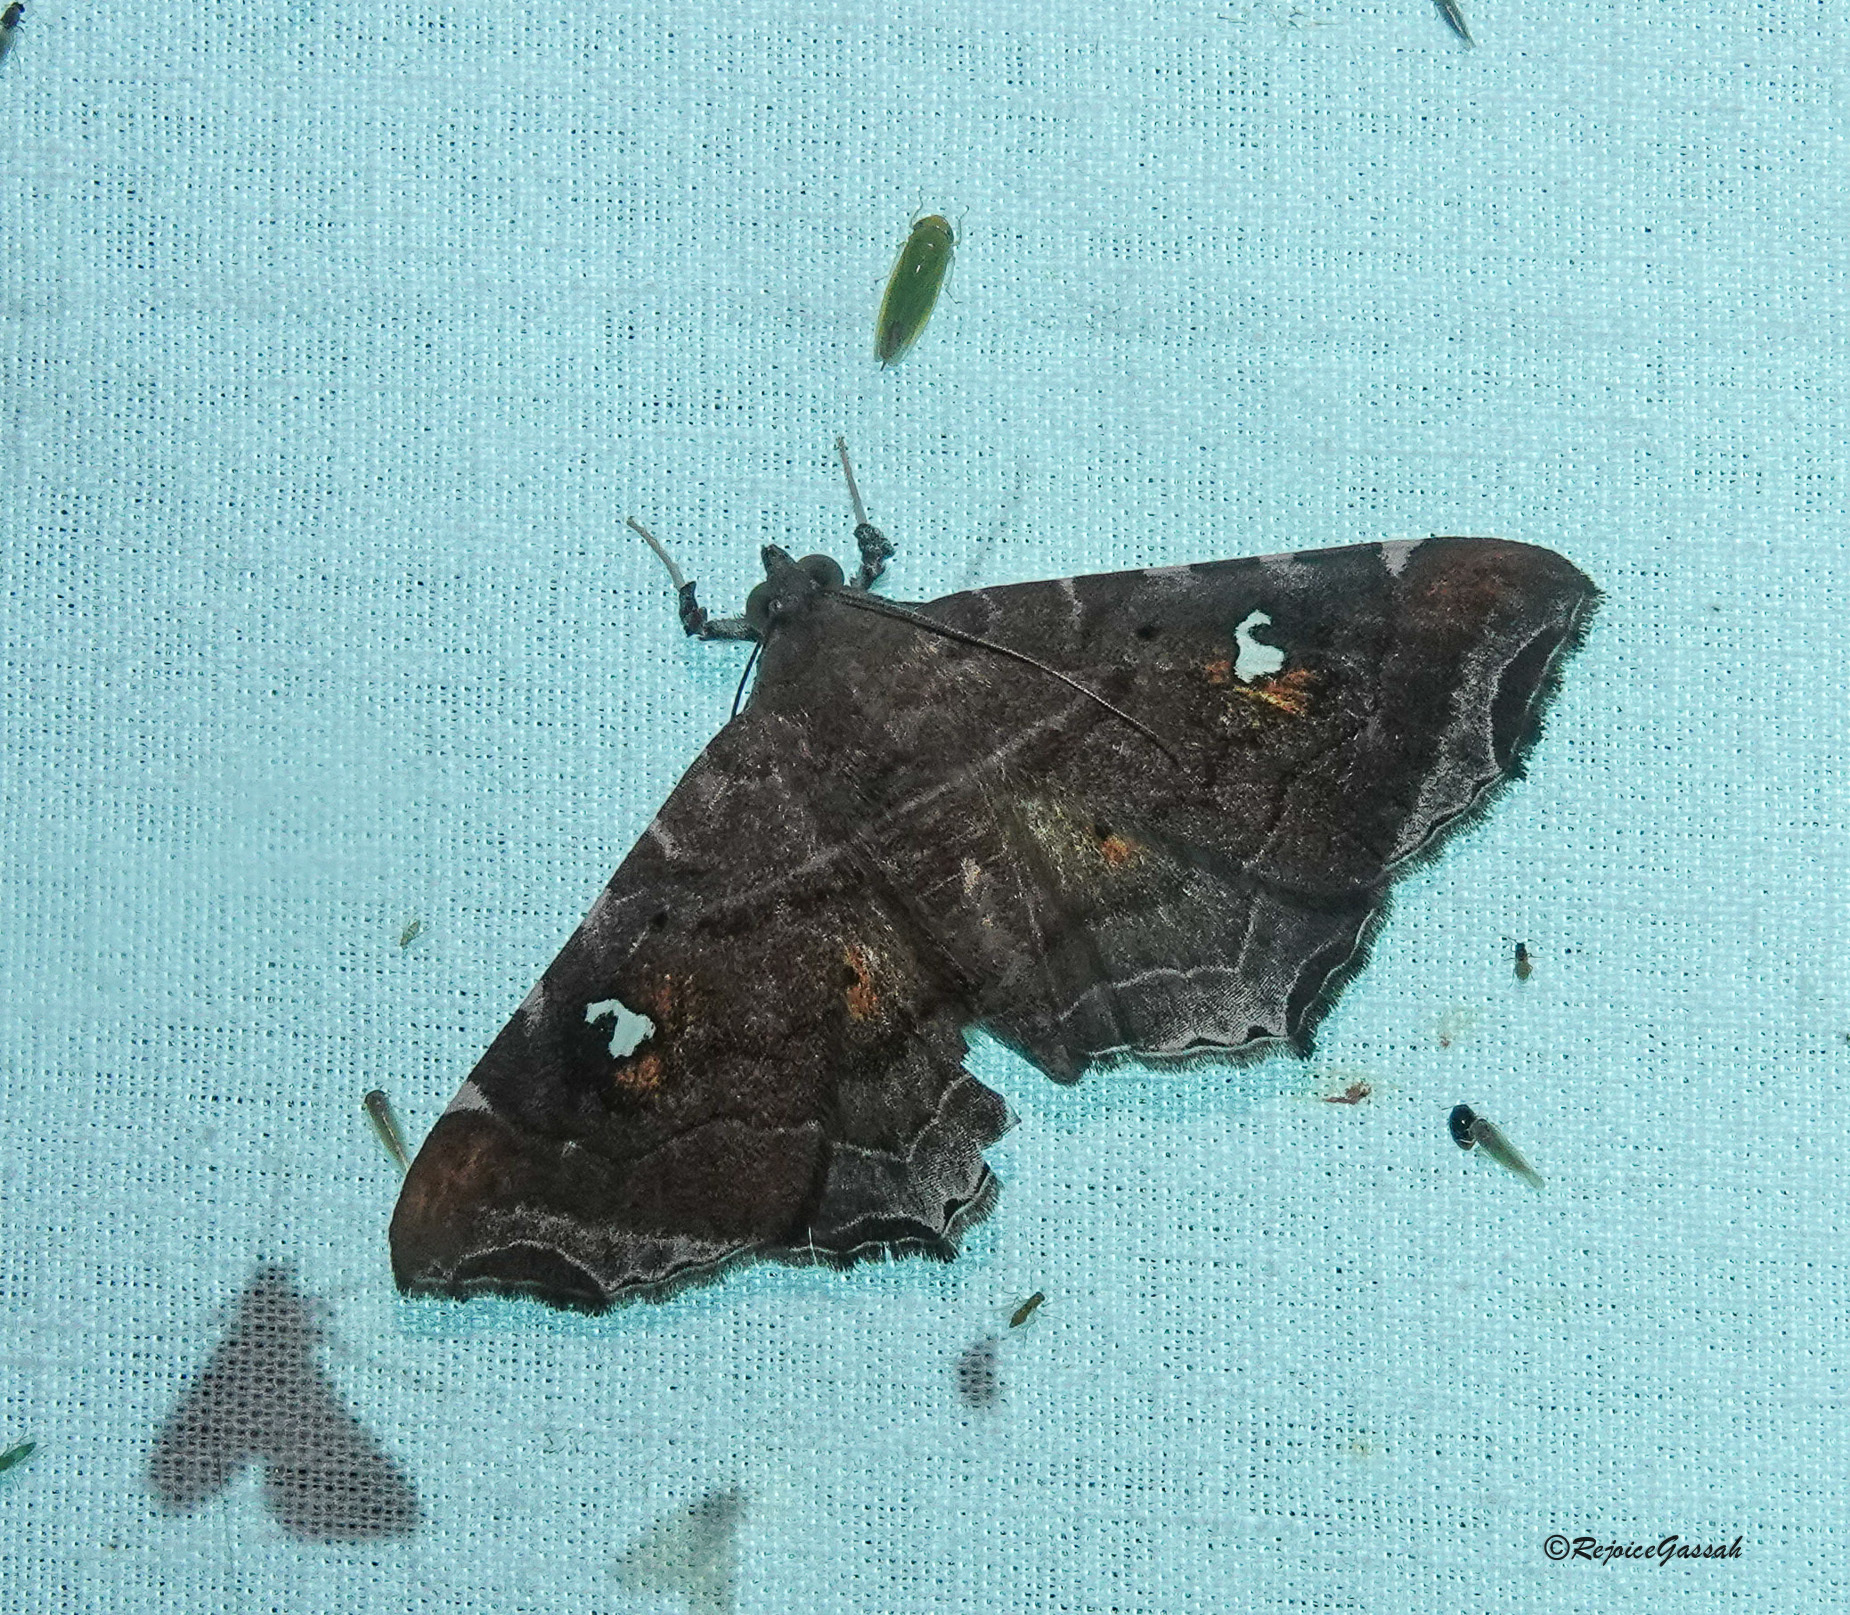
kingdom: Animalia
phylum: Arthropoda
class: Insecta
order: Lepidoptera
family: Erebidae
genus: Episparis
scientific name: Episparis liturata
